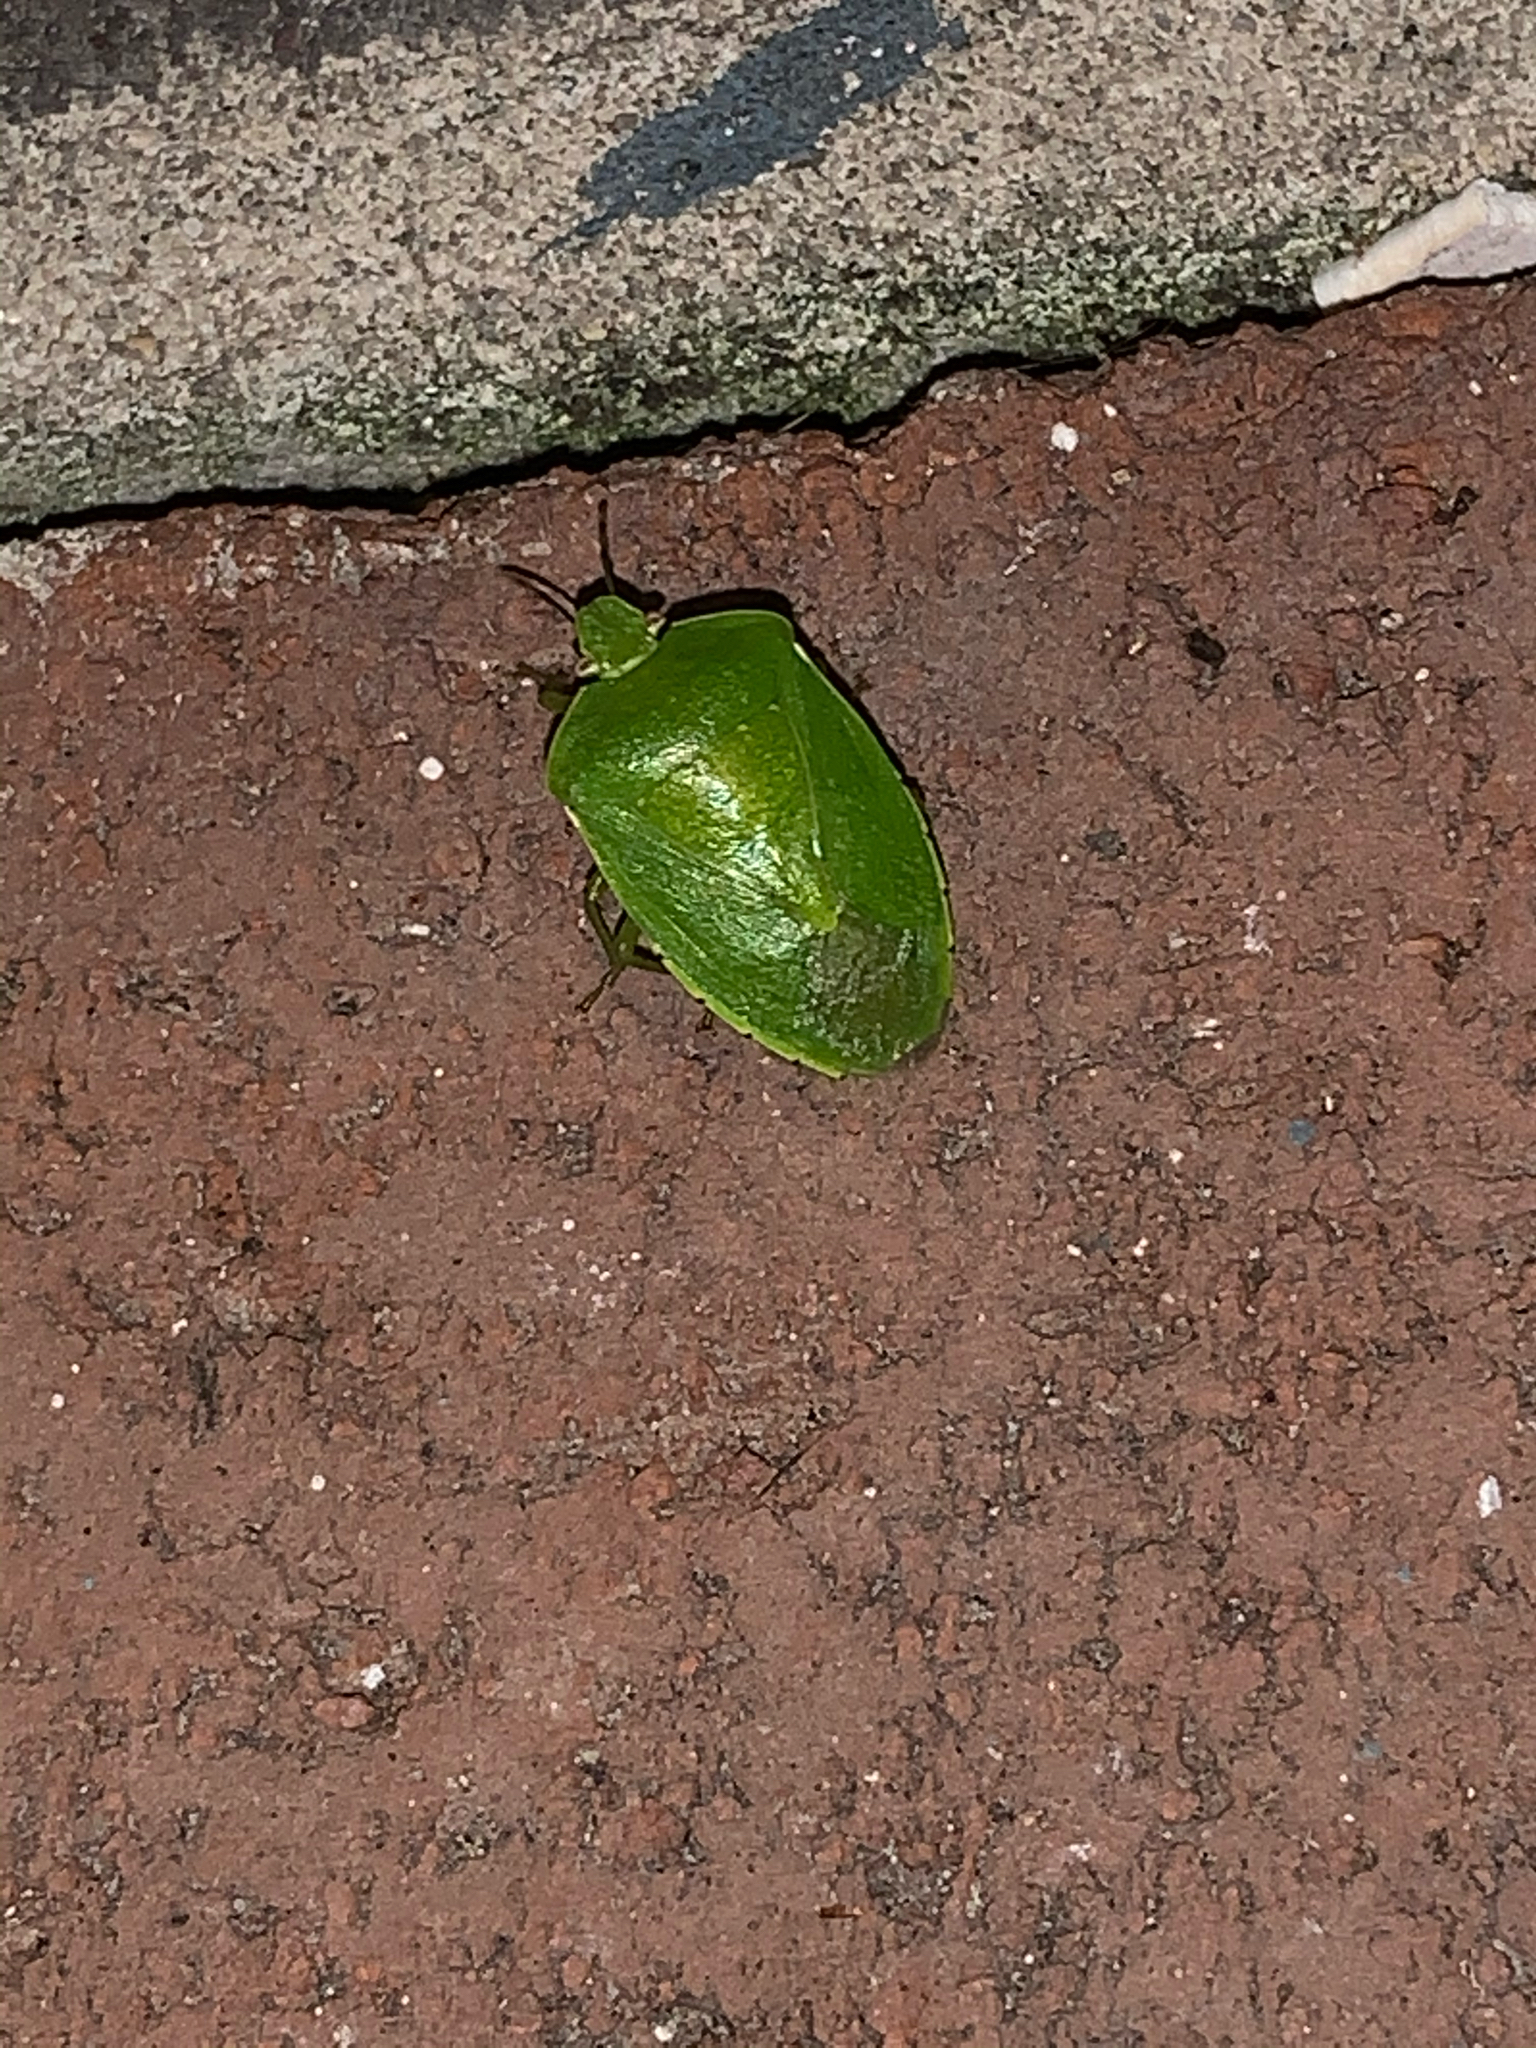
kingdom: Animalia
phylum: Arthropoda
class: Insecta
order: Hemiptera
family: Pentatomidae
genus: Chinavia
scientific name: Chinavia hilaris
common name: Green stink bug
